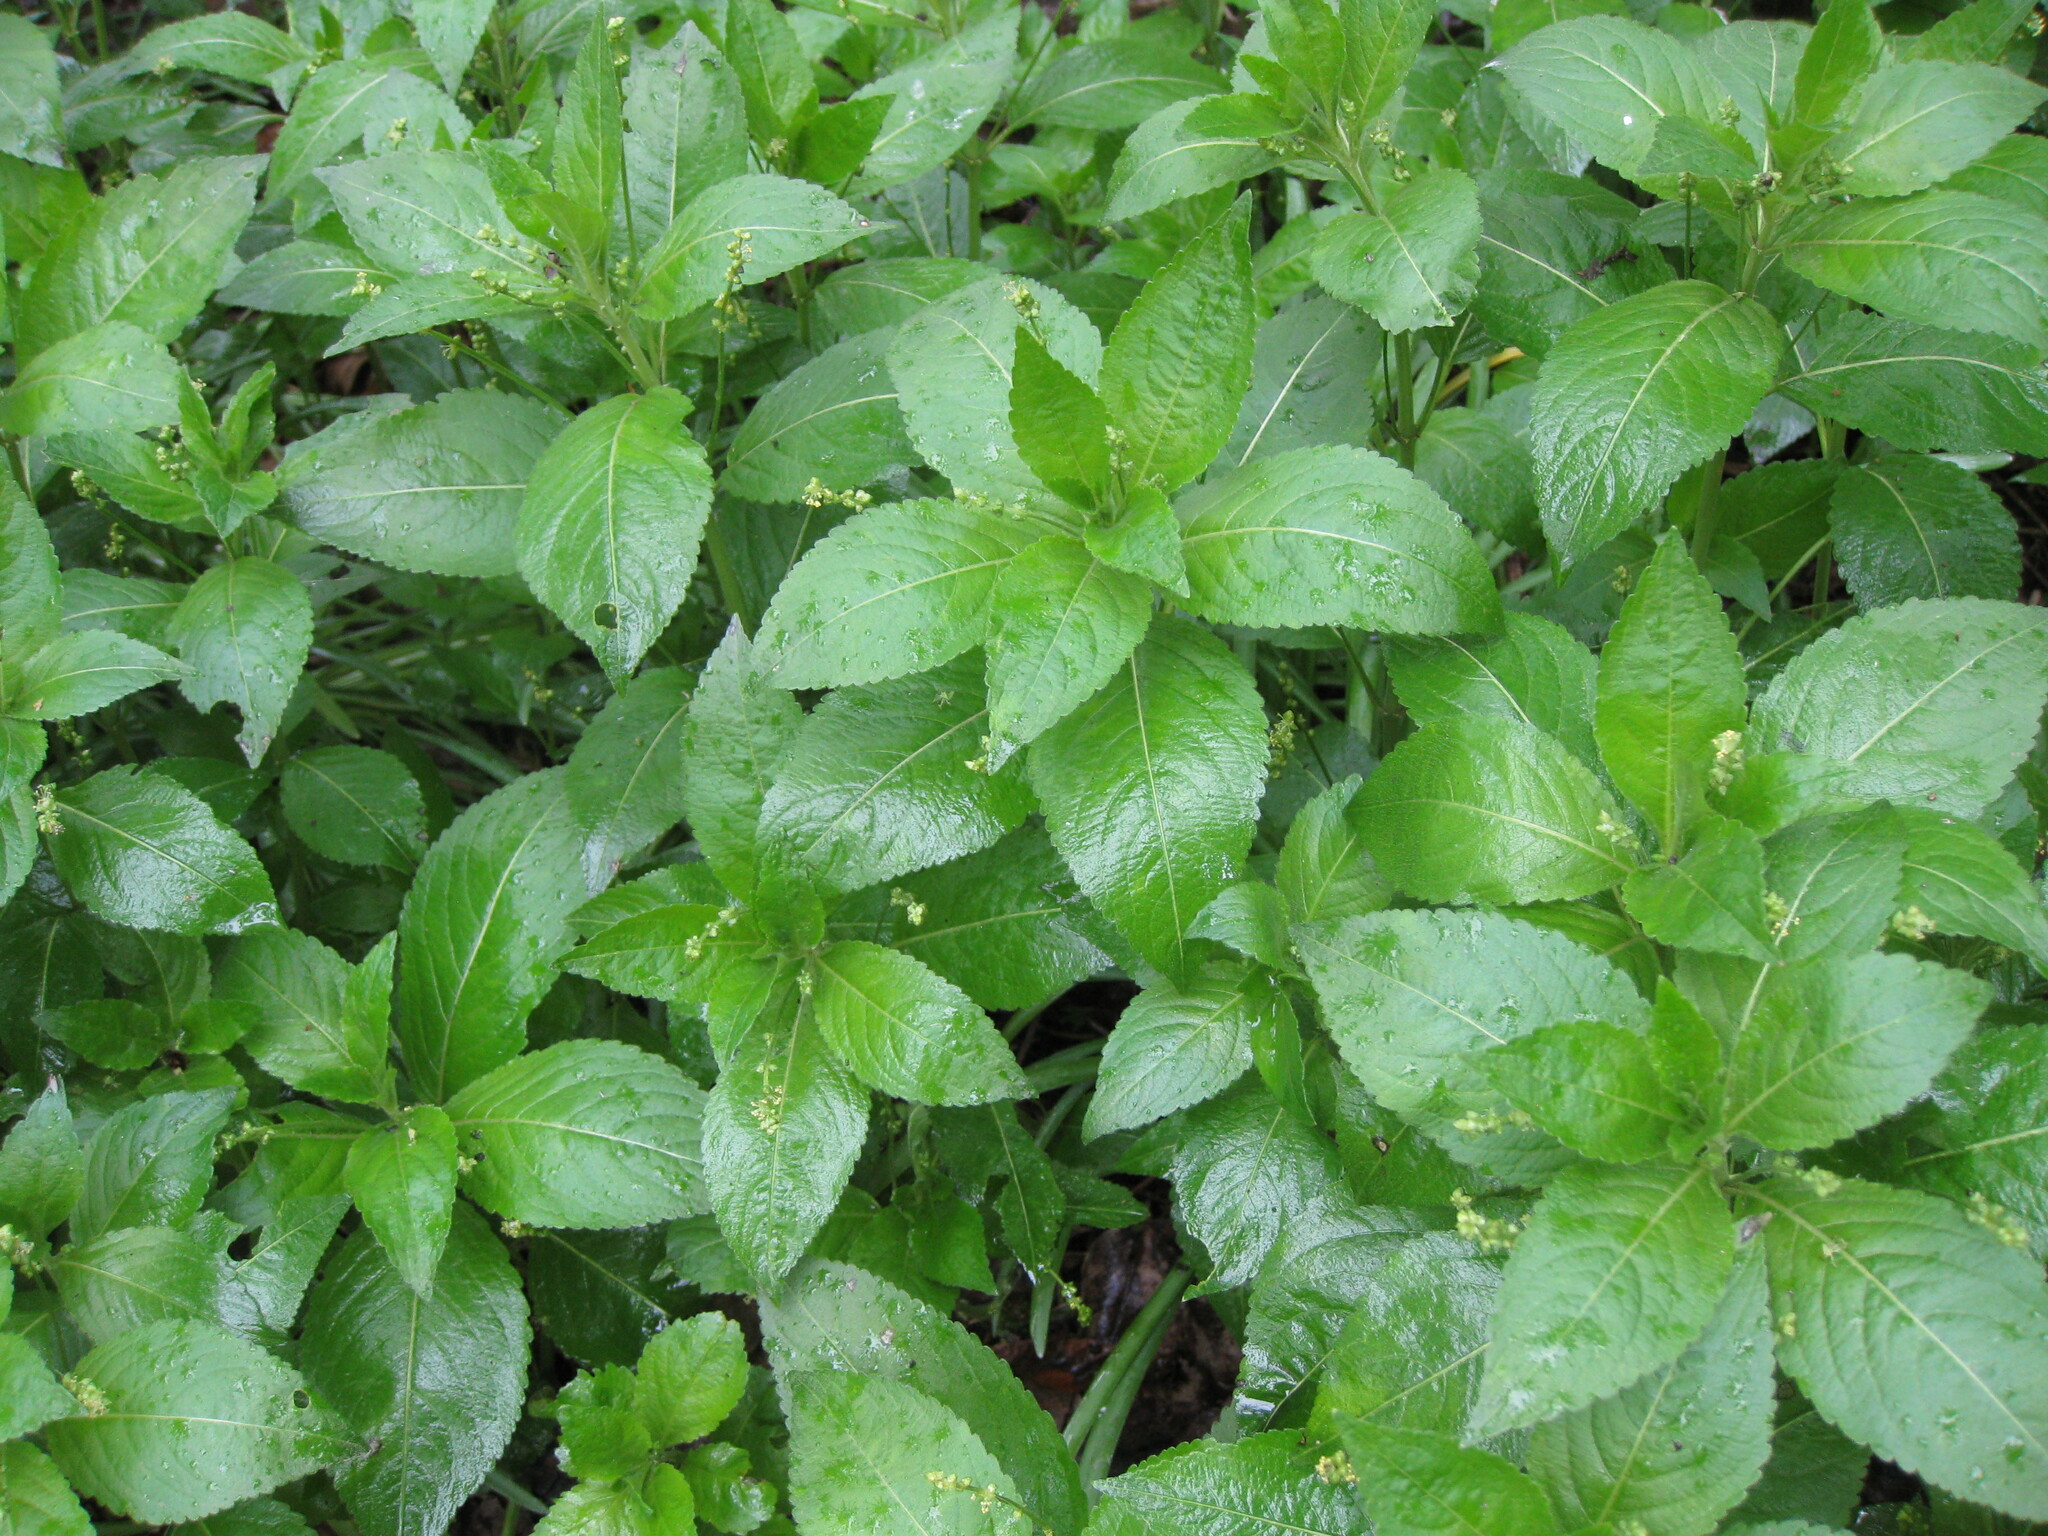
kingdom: Plantae
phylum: Tracheophyta
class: Magnoliopsida
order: Malpighiales
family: Euphorbiaceae
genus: Mercurialis
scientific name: Mercurialis perennis
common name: Dog mercury
